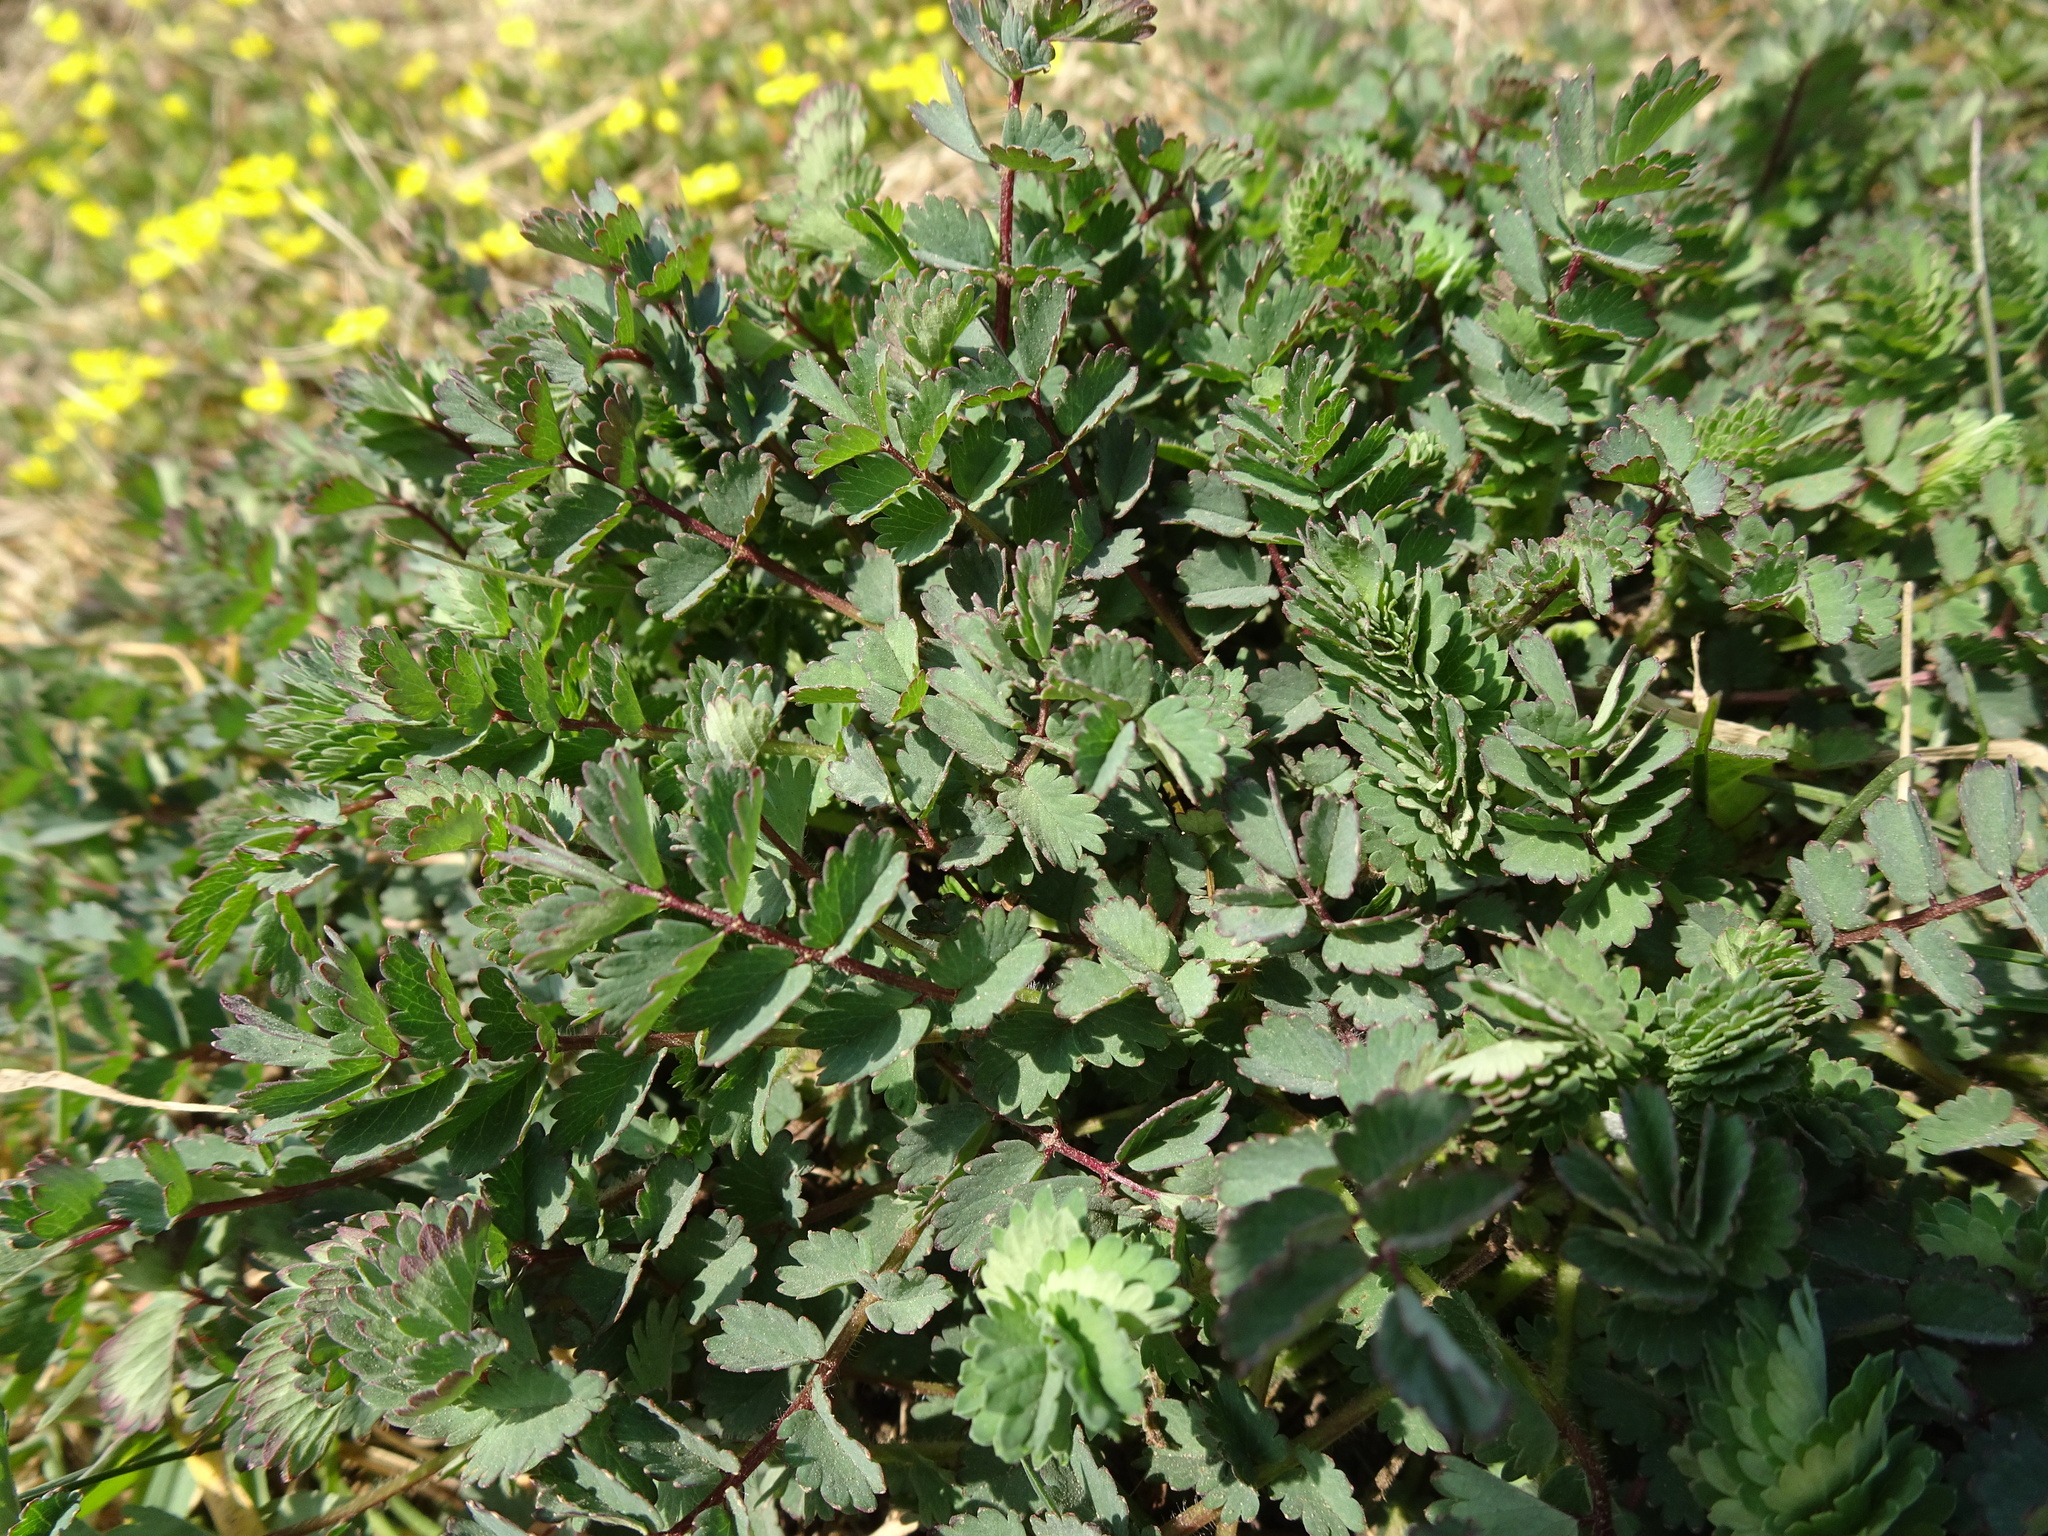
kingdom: Plantae
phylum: Tracheophyta
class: Magnoliopsida
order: Rosales
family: Rosaceae
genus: Poterium
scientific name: Poterium sanguisorba
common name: Salad burnet
